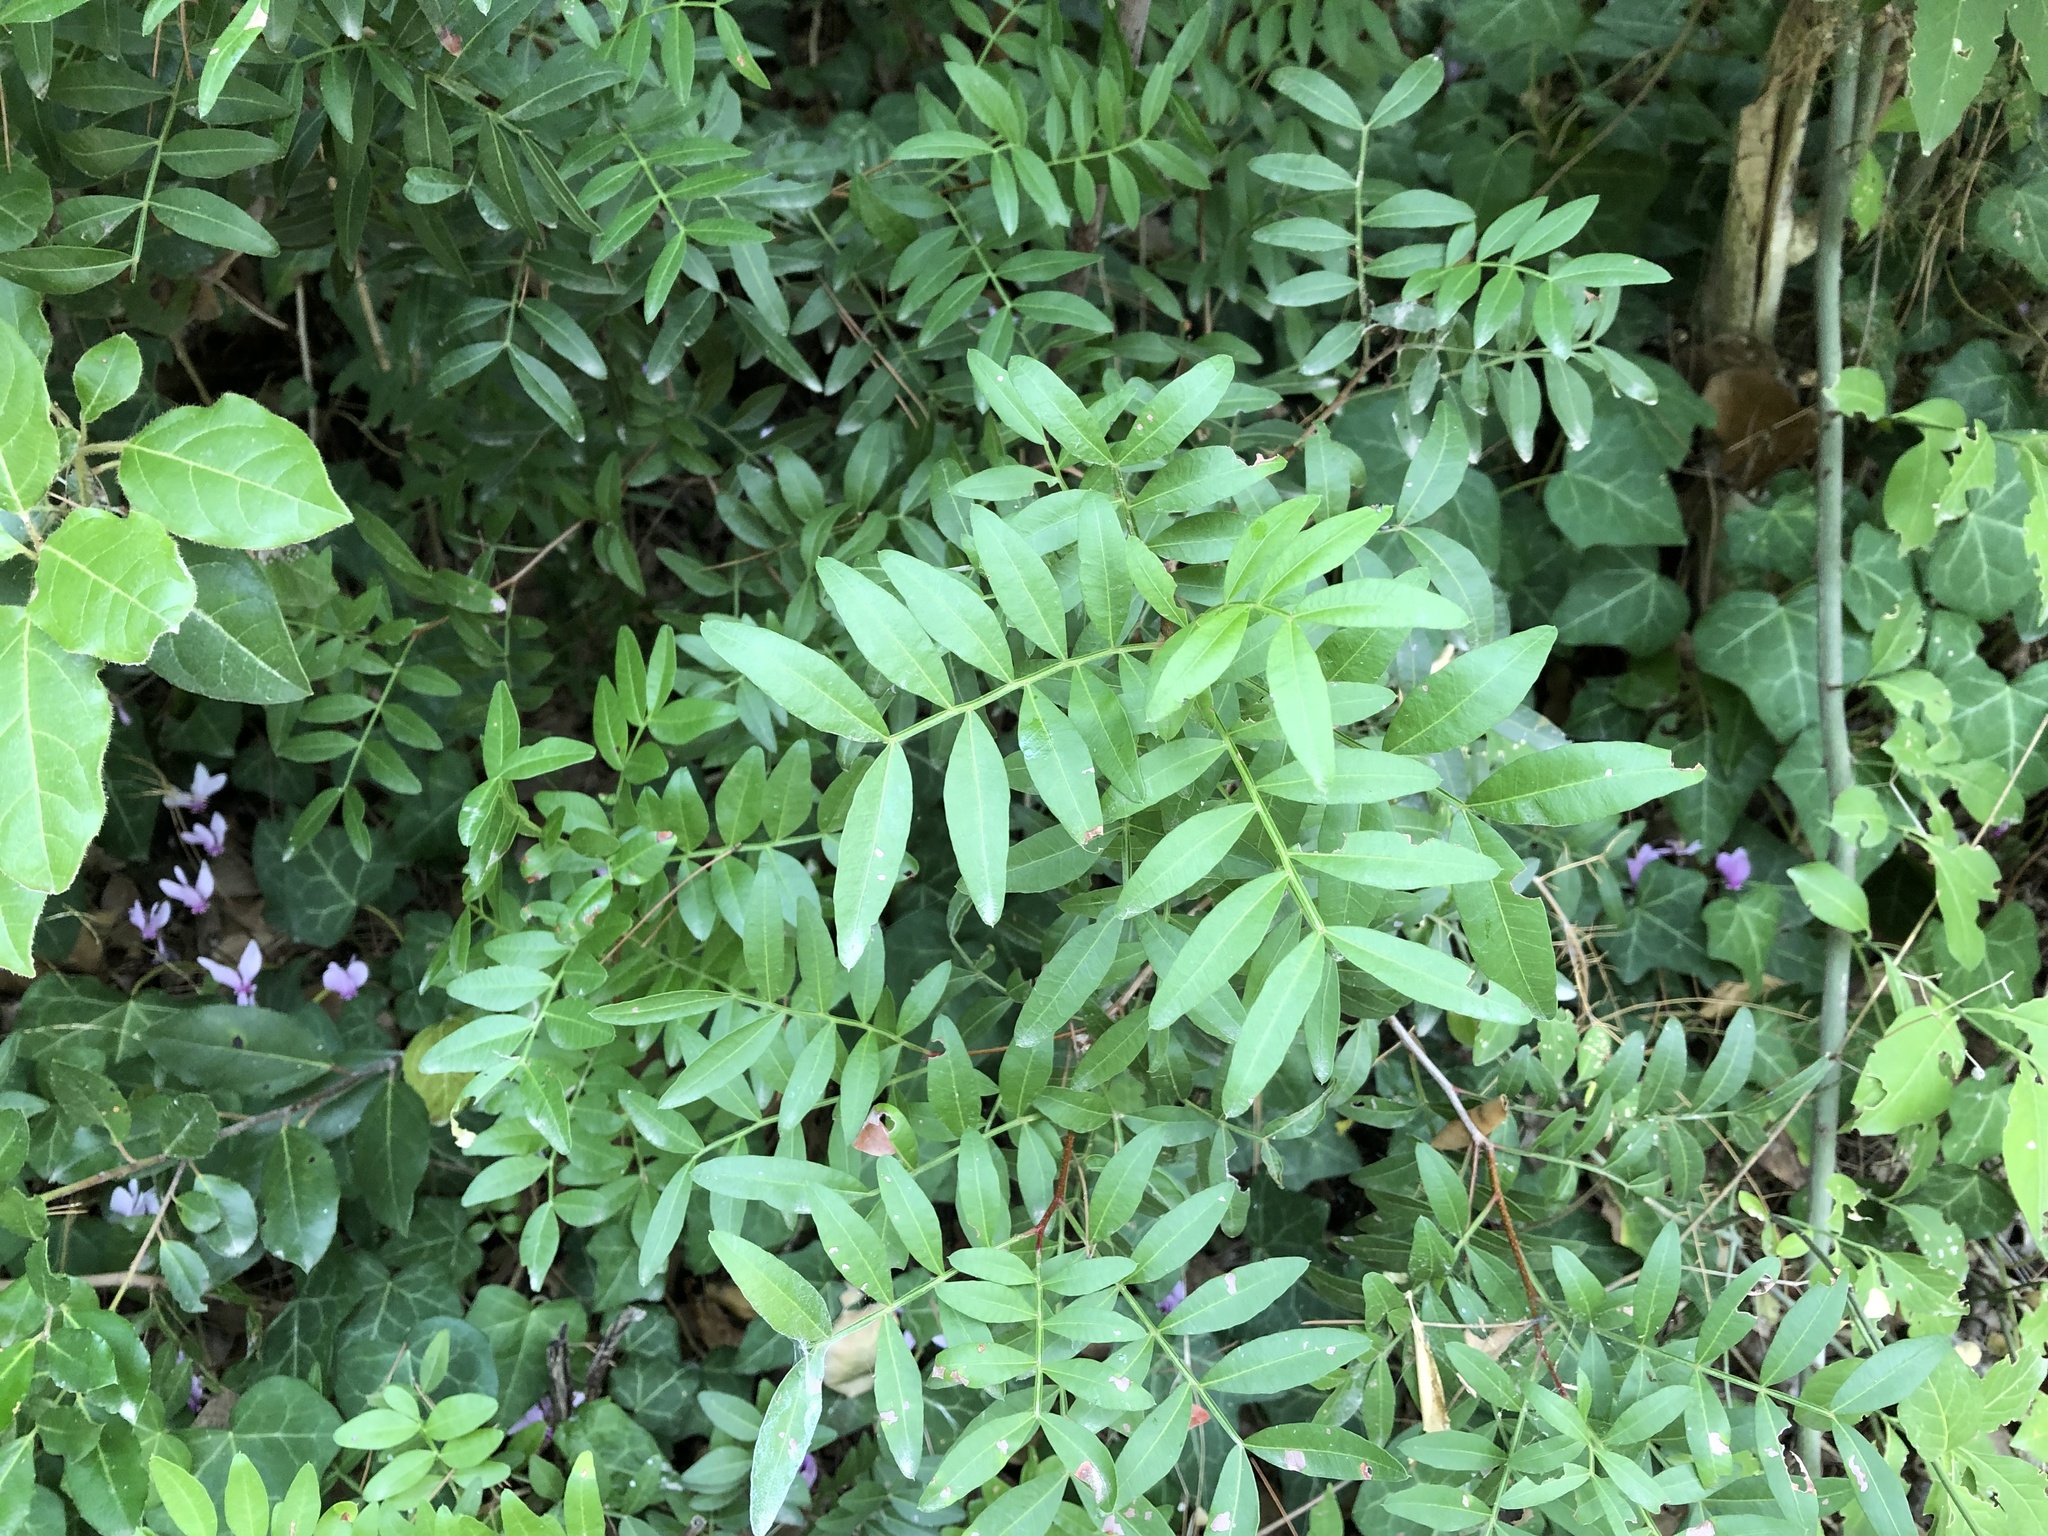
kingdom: Plantae
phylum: Tracheophyta
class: Magnoliopsida
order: Sapindales
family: Anacardiaceae
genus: Pistacia
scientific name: Pistacia lentiscus
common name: Lentisk
